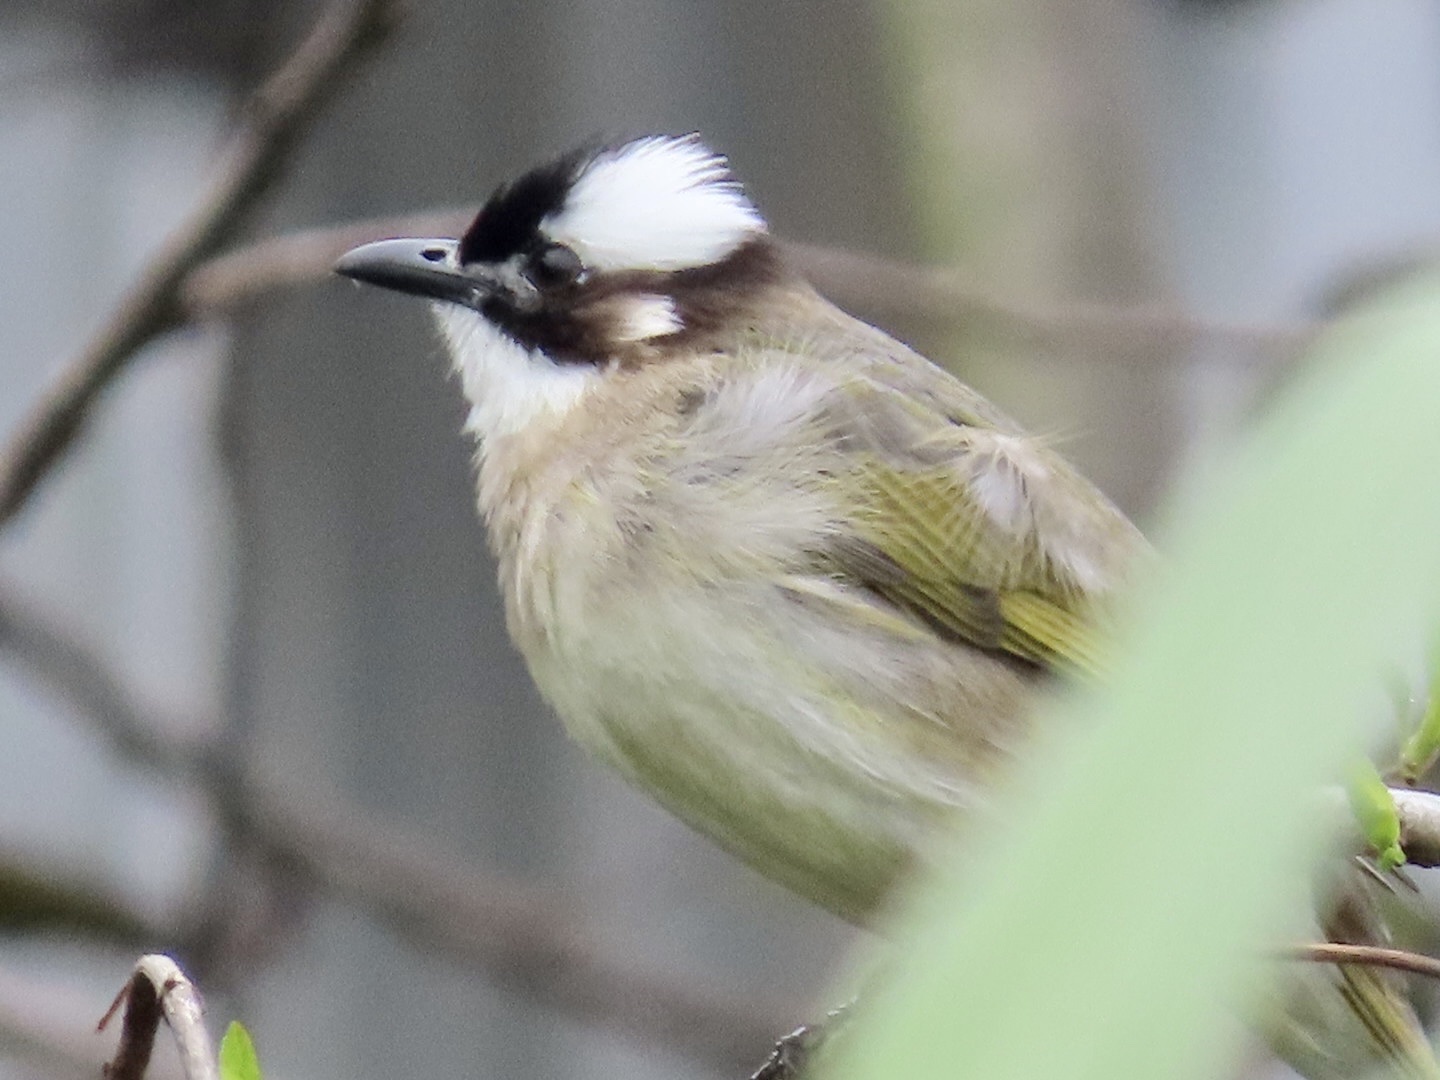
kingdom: Animalia
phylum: Chordata
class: Aves
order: Passeriformes
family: Pycnonotidae
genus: Pycnonotus
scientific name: Pycnonotus sinensis
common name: Light-vented bulbul
